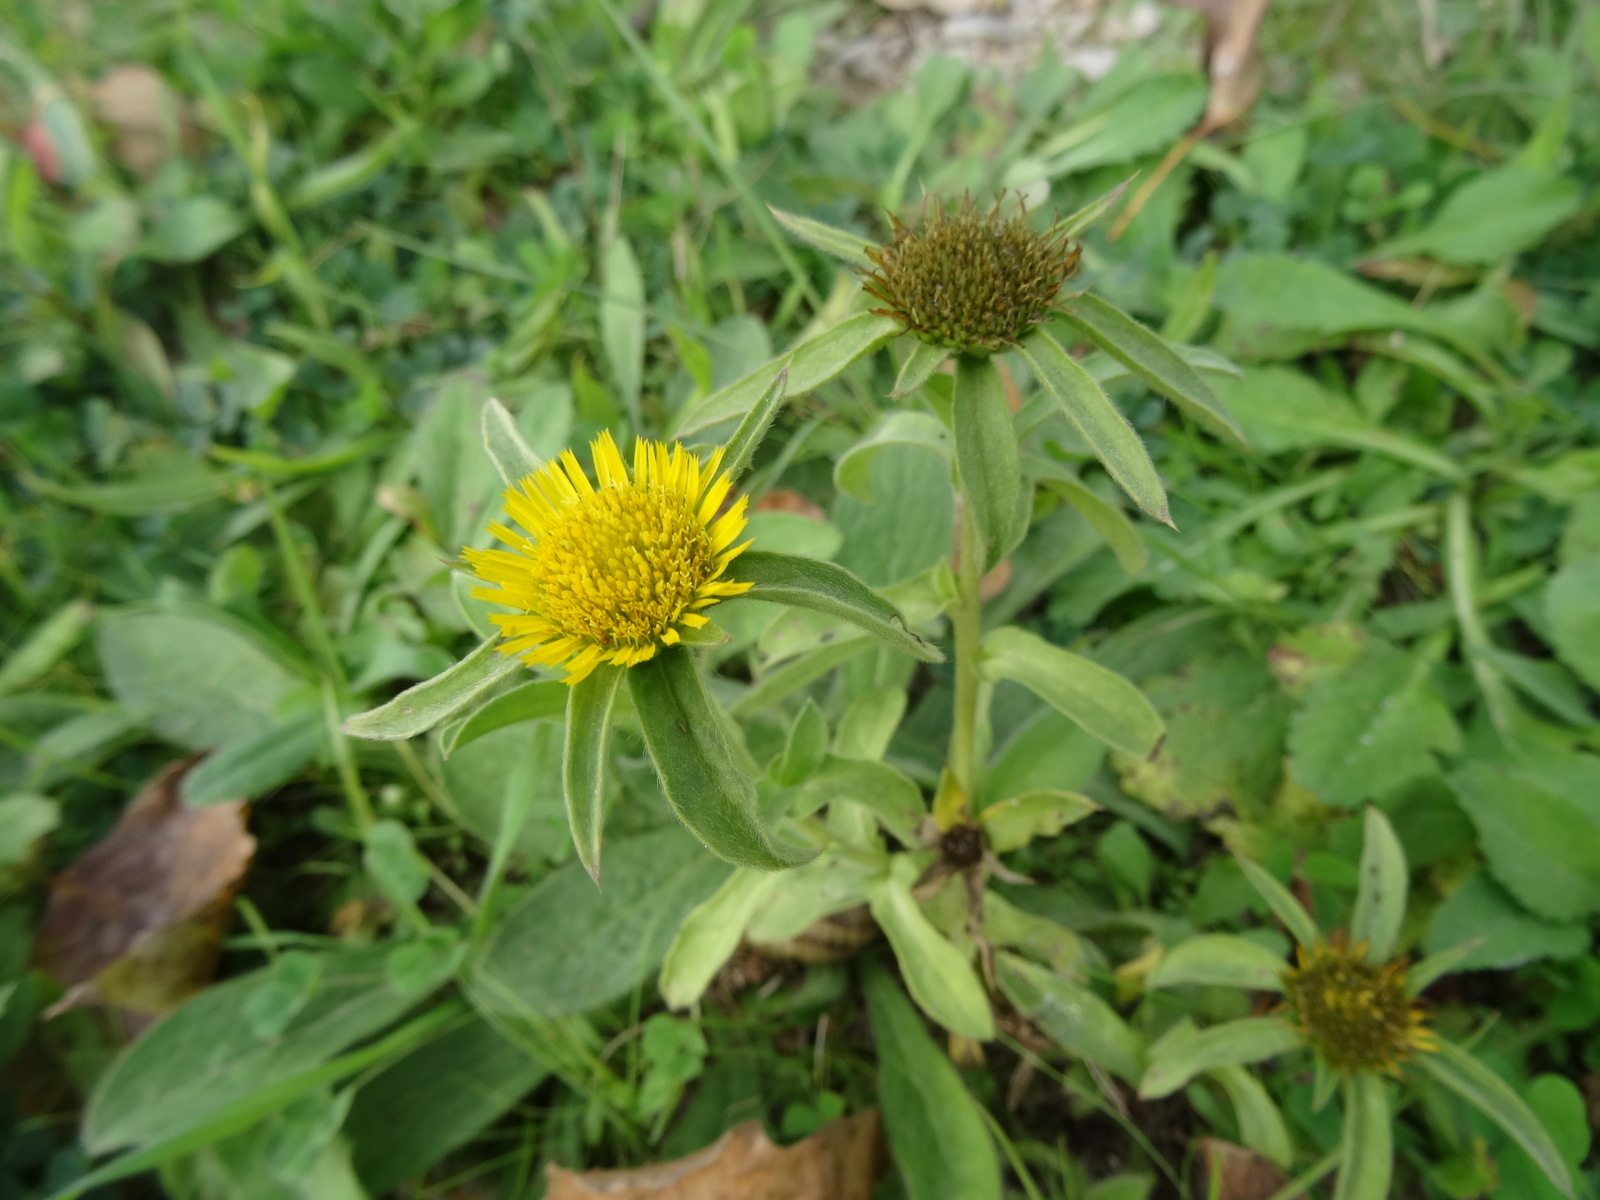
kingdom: Plantae
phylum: Tracheophyta
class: Magnoliopsida
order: Asterales
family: Asteraceae
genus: Pallenis
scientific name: Pallenis spinosa
